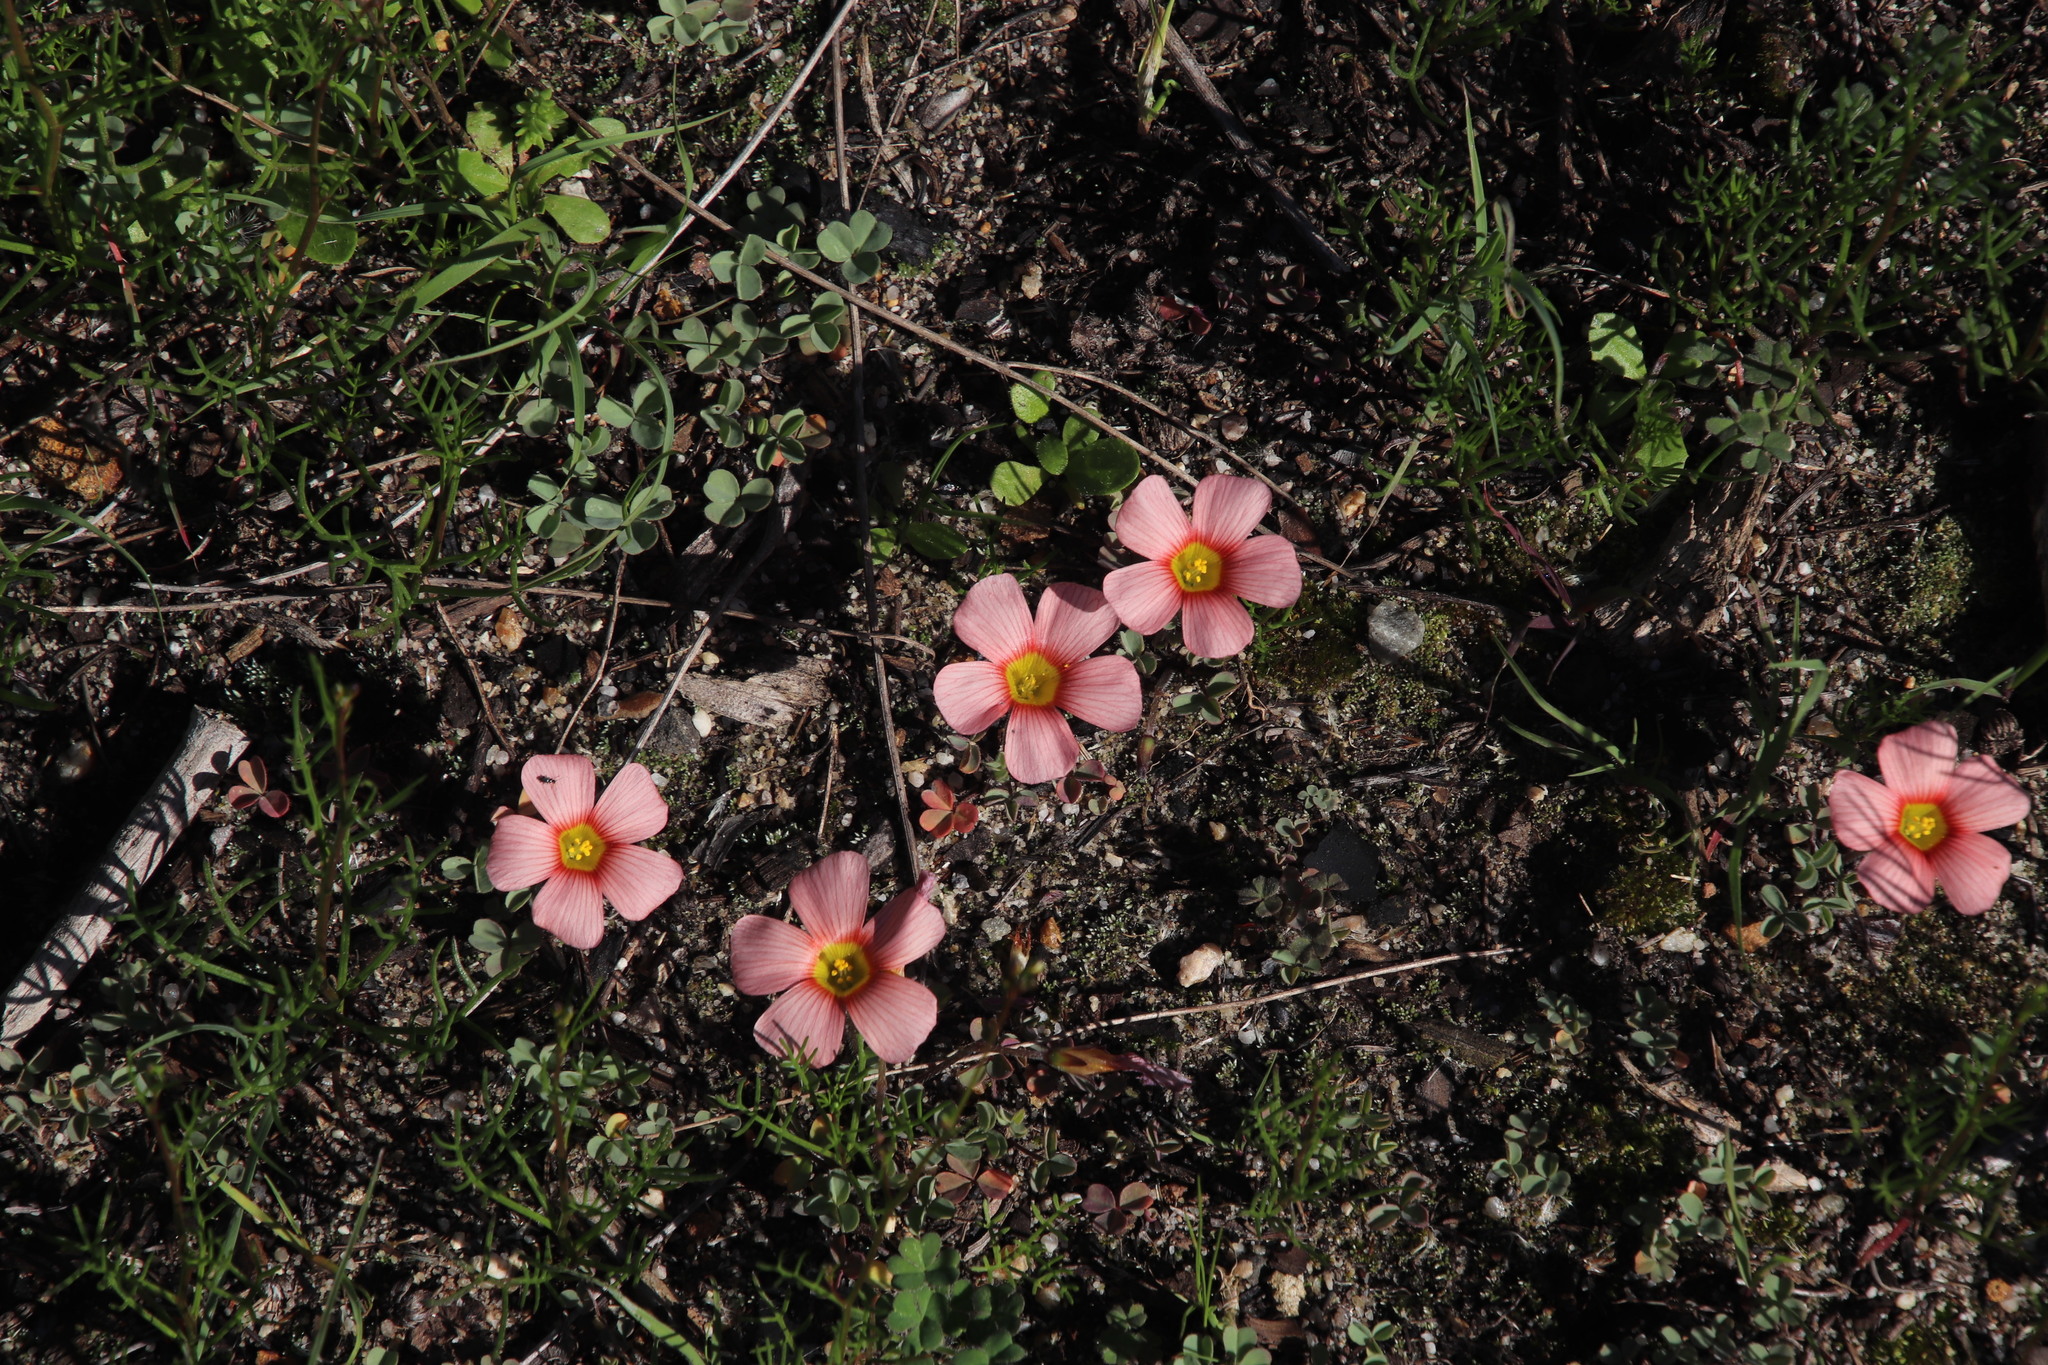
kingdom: Plantae
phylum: Tracheophyta
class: Magnoliopsida
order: Oxalidales
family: Oxalidaceae
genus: Oxalis
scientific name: Oxalis obtusa
